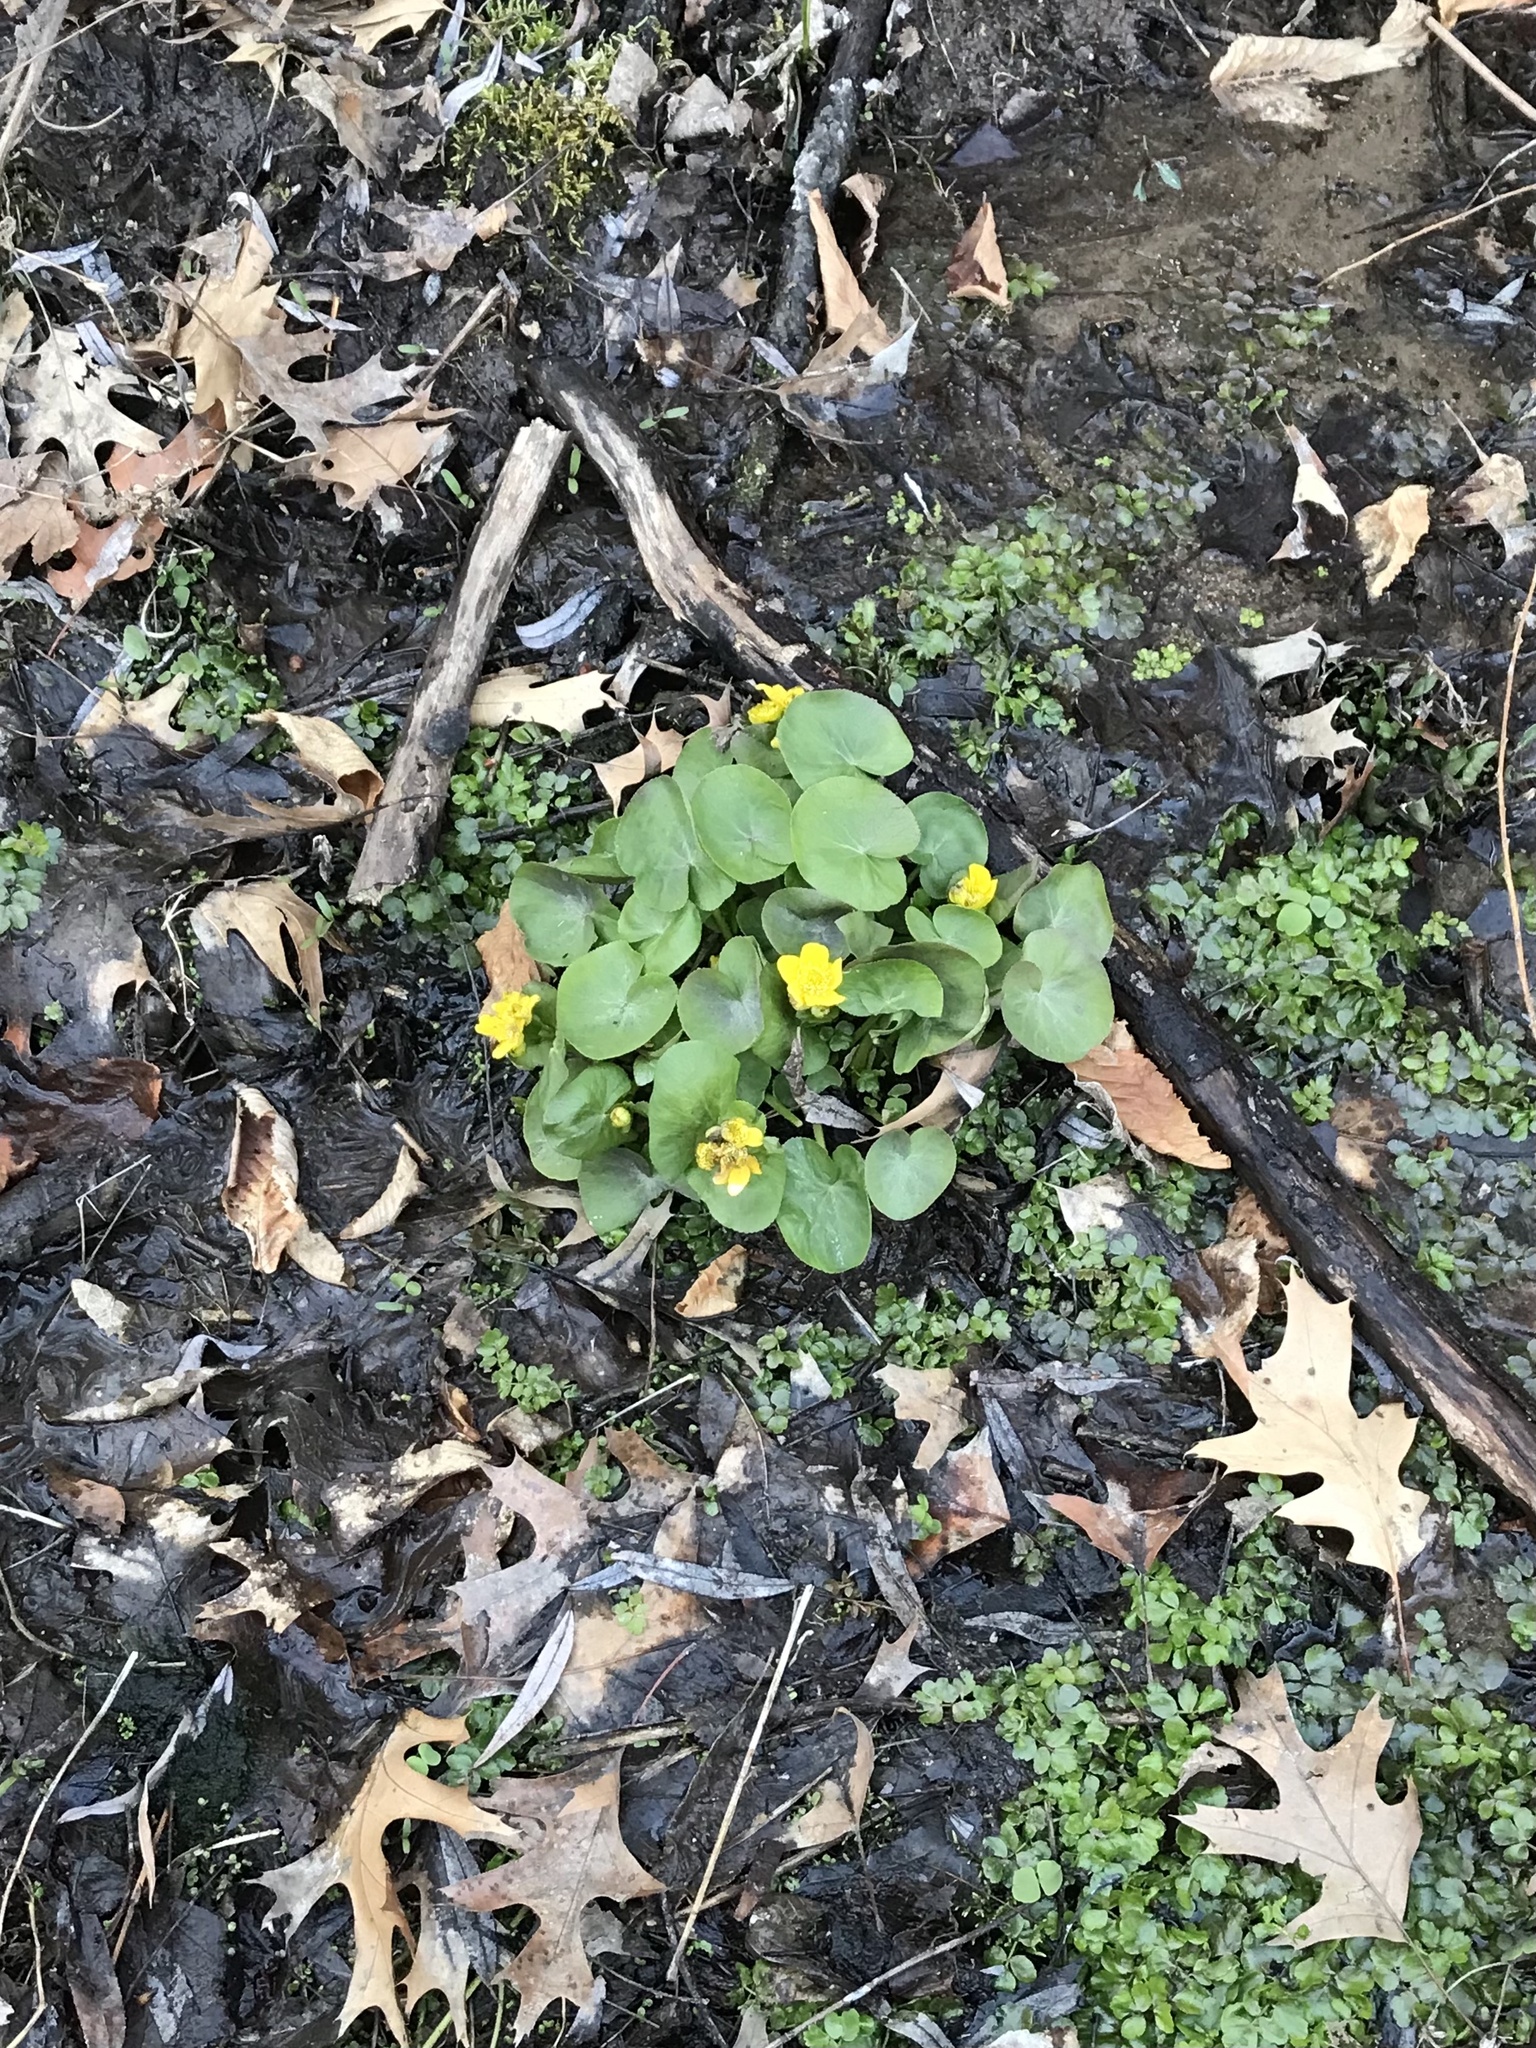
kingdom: Plantae
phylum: Tracheophyta
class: Magnoliopsida
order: Ranunculales
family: Ranunculaceae
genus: Caltha
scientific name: Caltha palustris
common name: Marsh marigold
